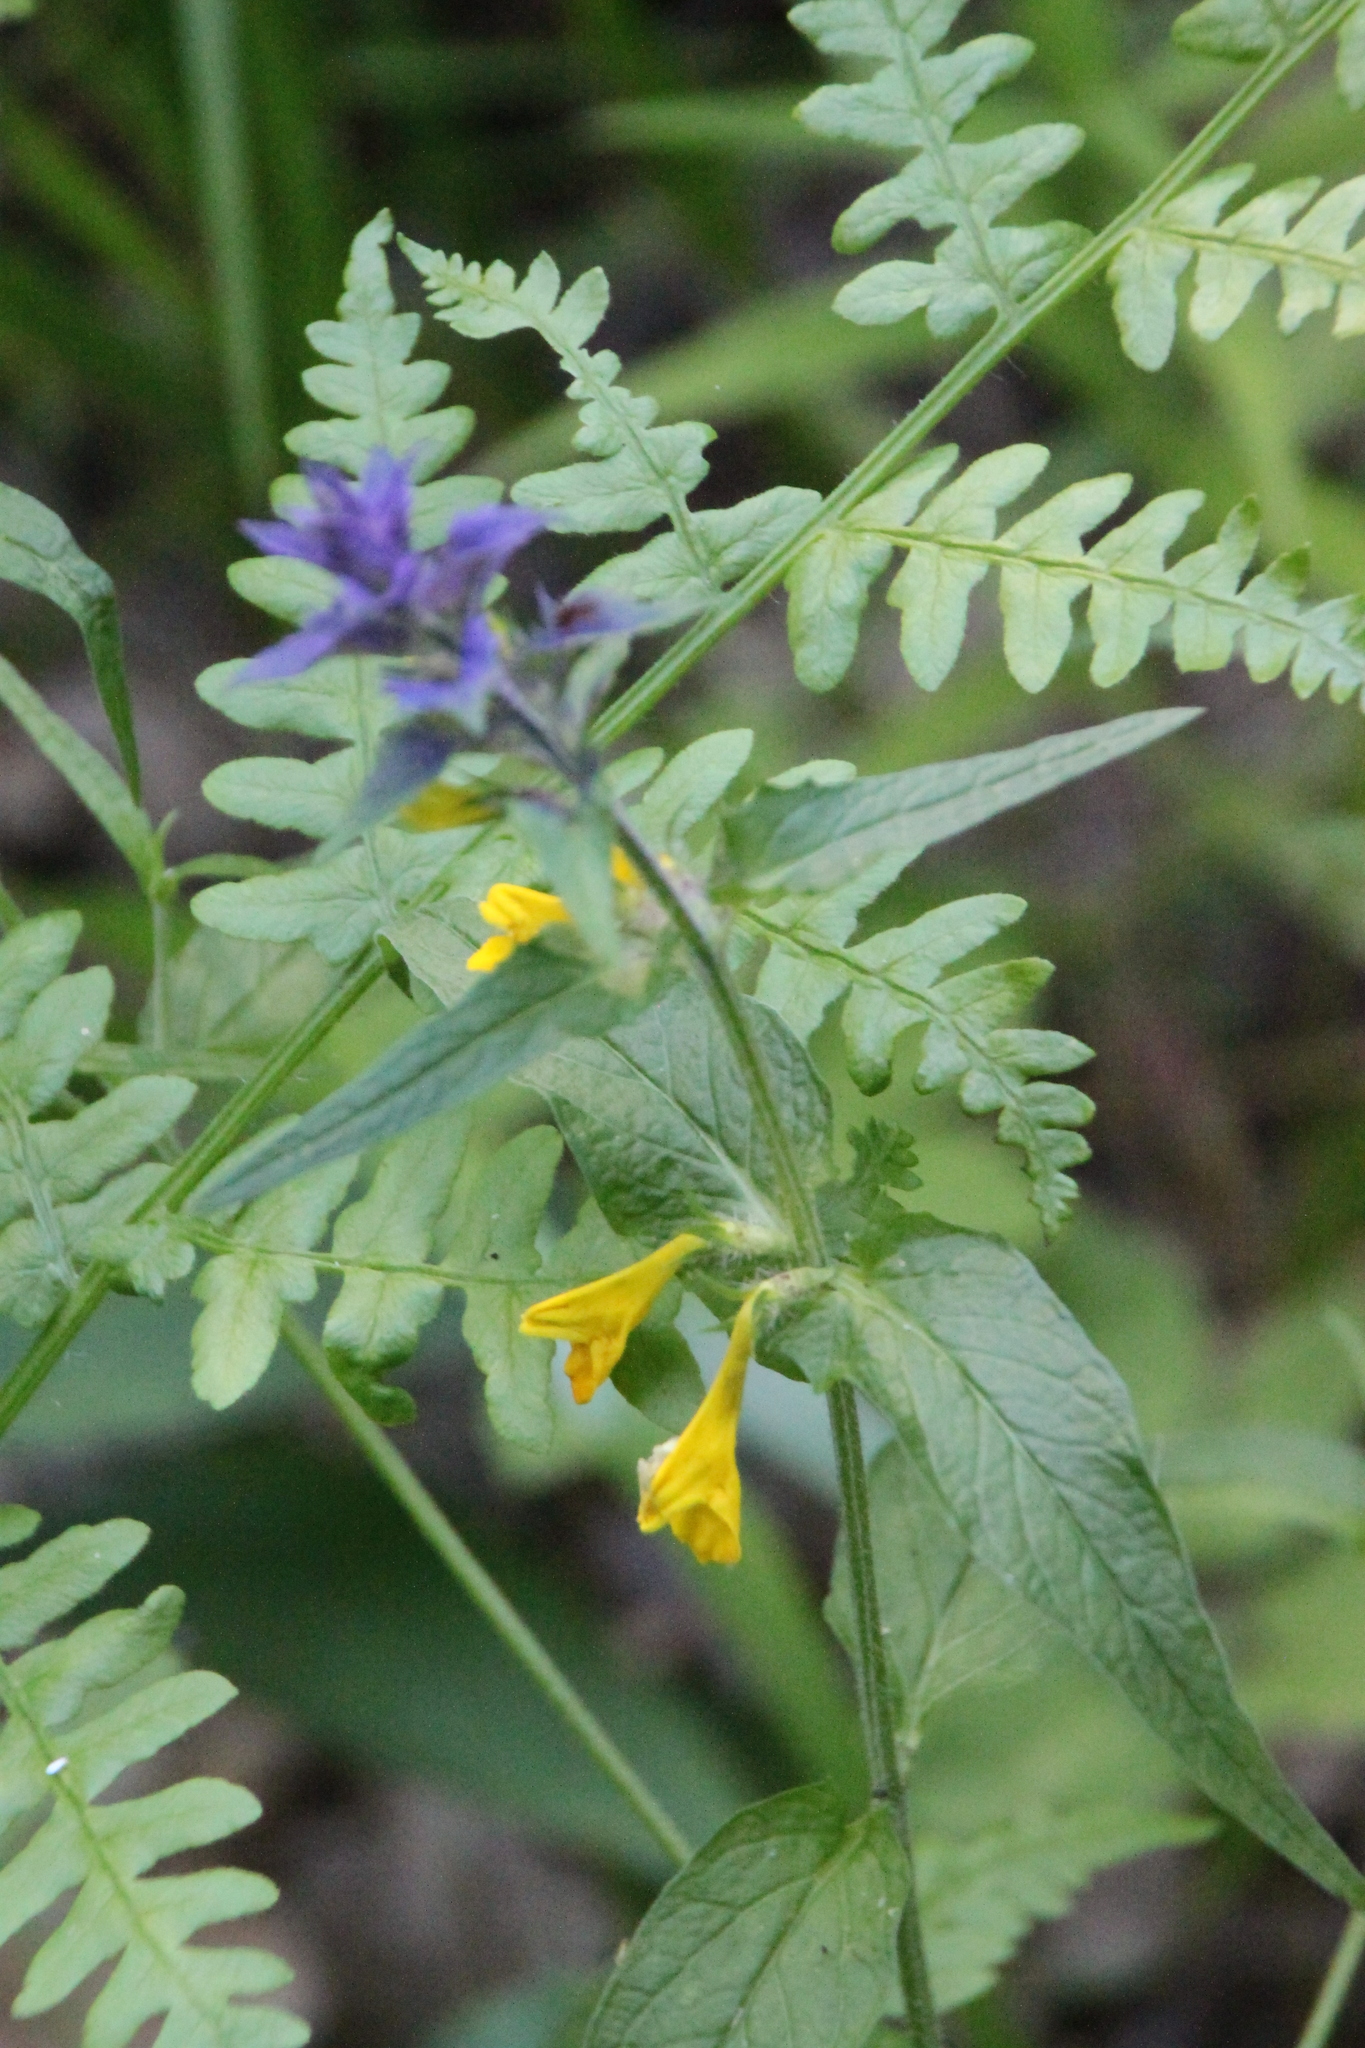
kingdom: Plantae
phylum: Tracheophyta
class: Magnoliopsida
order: Lamiales
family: Orobanchaceae
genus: Melampyrum
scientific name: Melampyrum nemorosum
